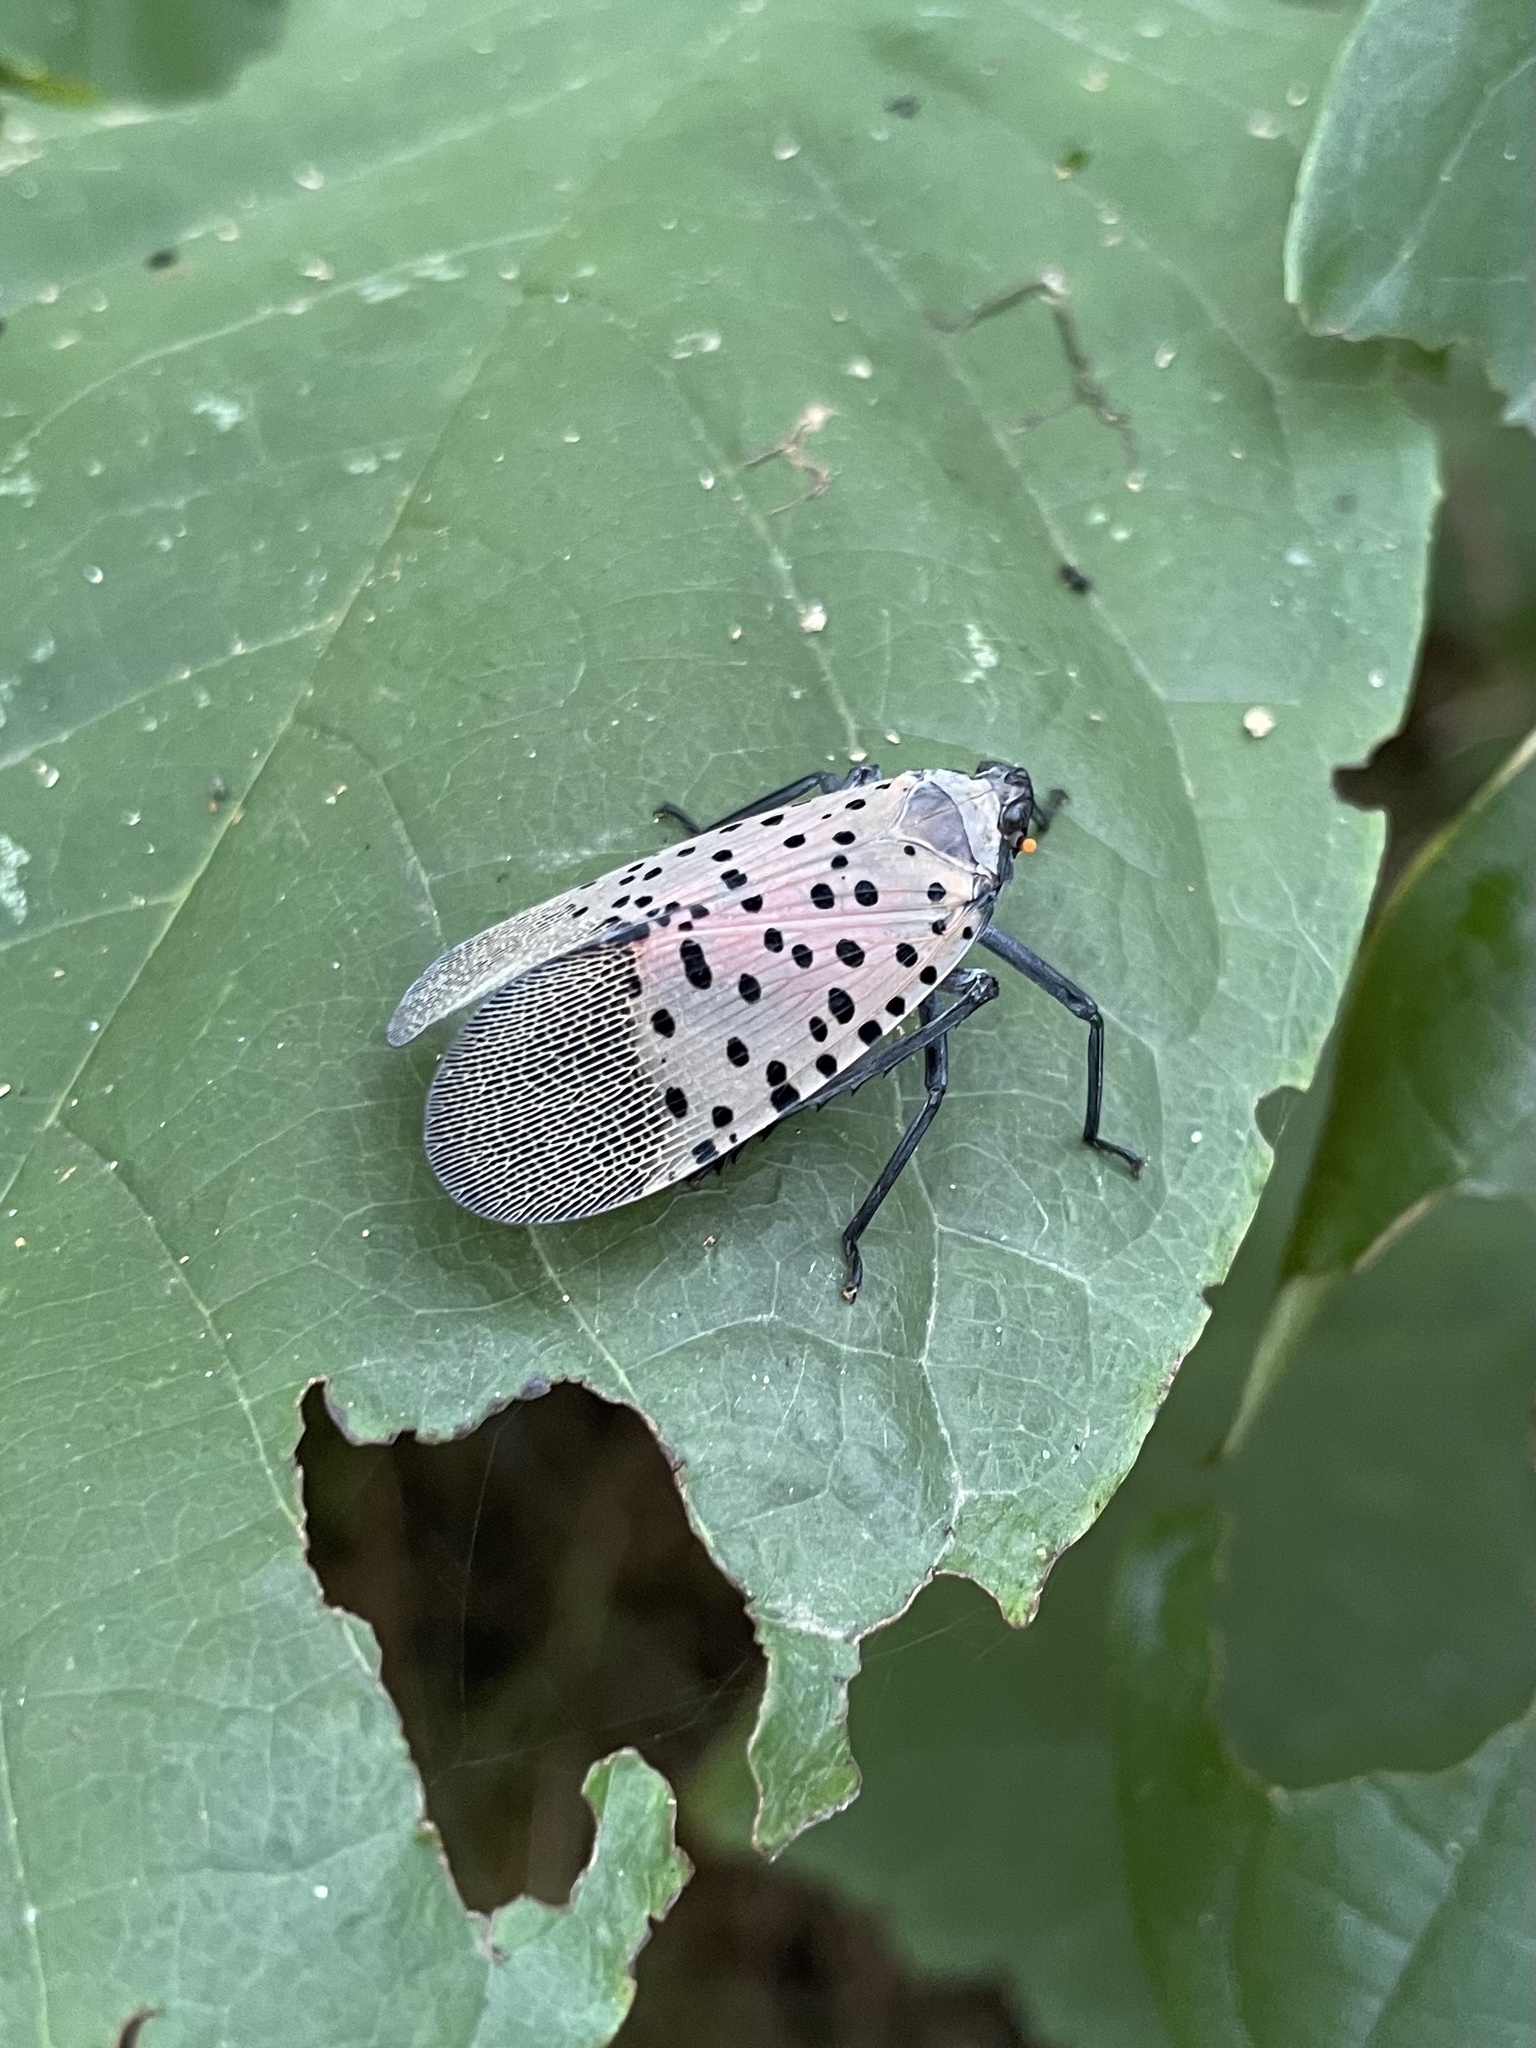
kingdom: Animalia
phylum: Arthropoda
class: Insecta
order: Hemiptera
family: Fulgoridae
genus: Lycorma
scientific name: Lycorma delicatula
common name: Spotted lanternfly
